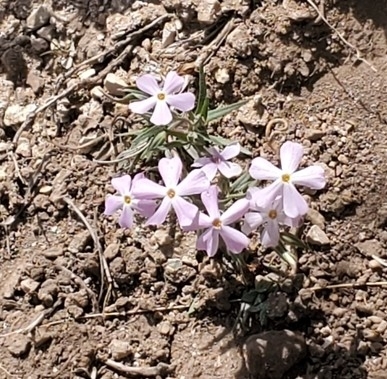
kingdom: Plantae
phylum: Tracheophyta
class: Magnoliopsida
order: Ericales
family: Polemoniaceae
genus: Phlox
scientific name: Phlox longifolia
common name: Longleaf phlox
